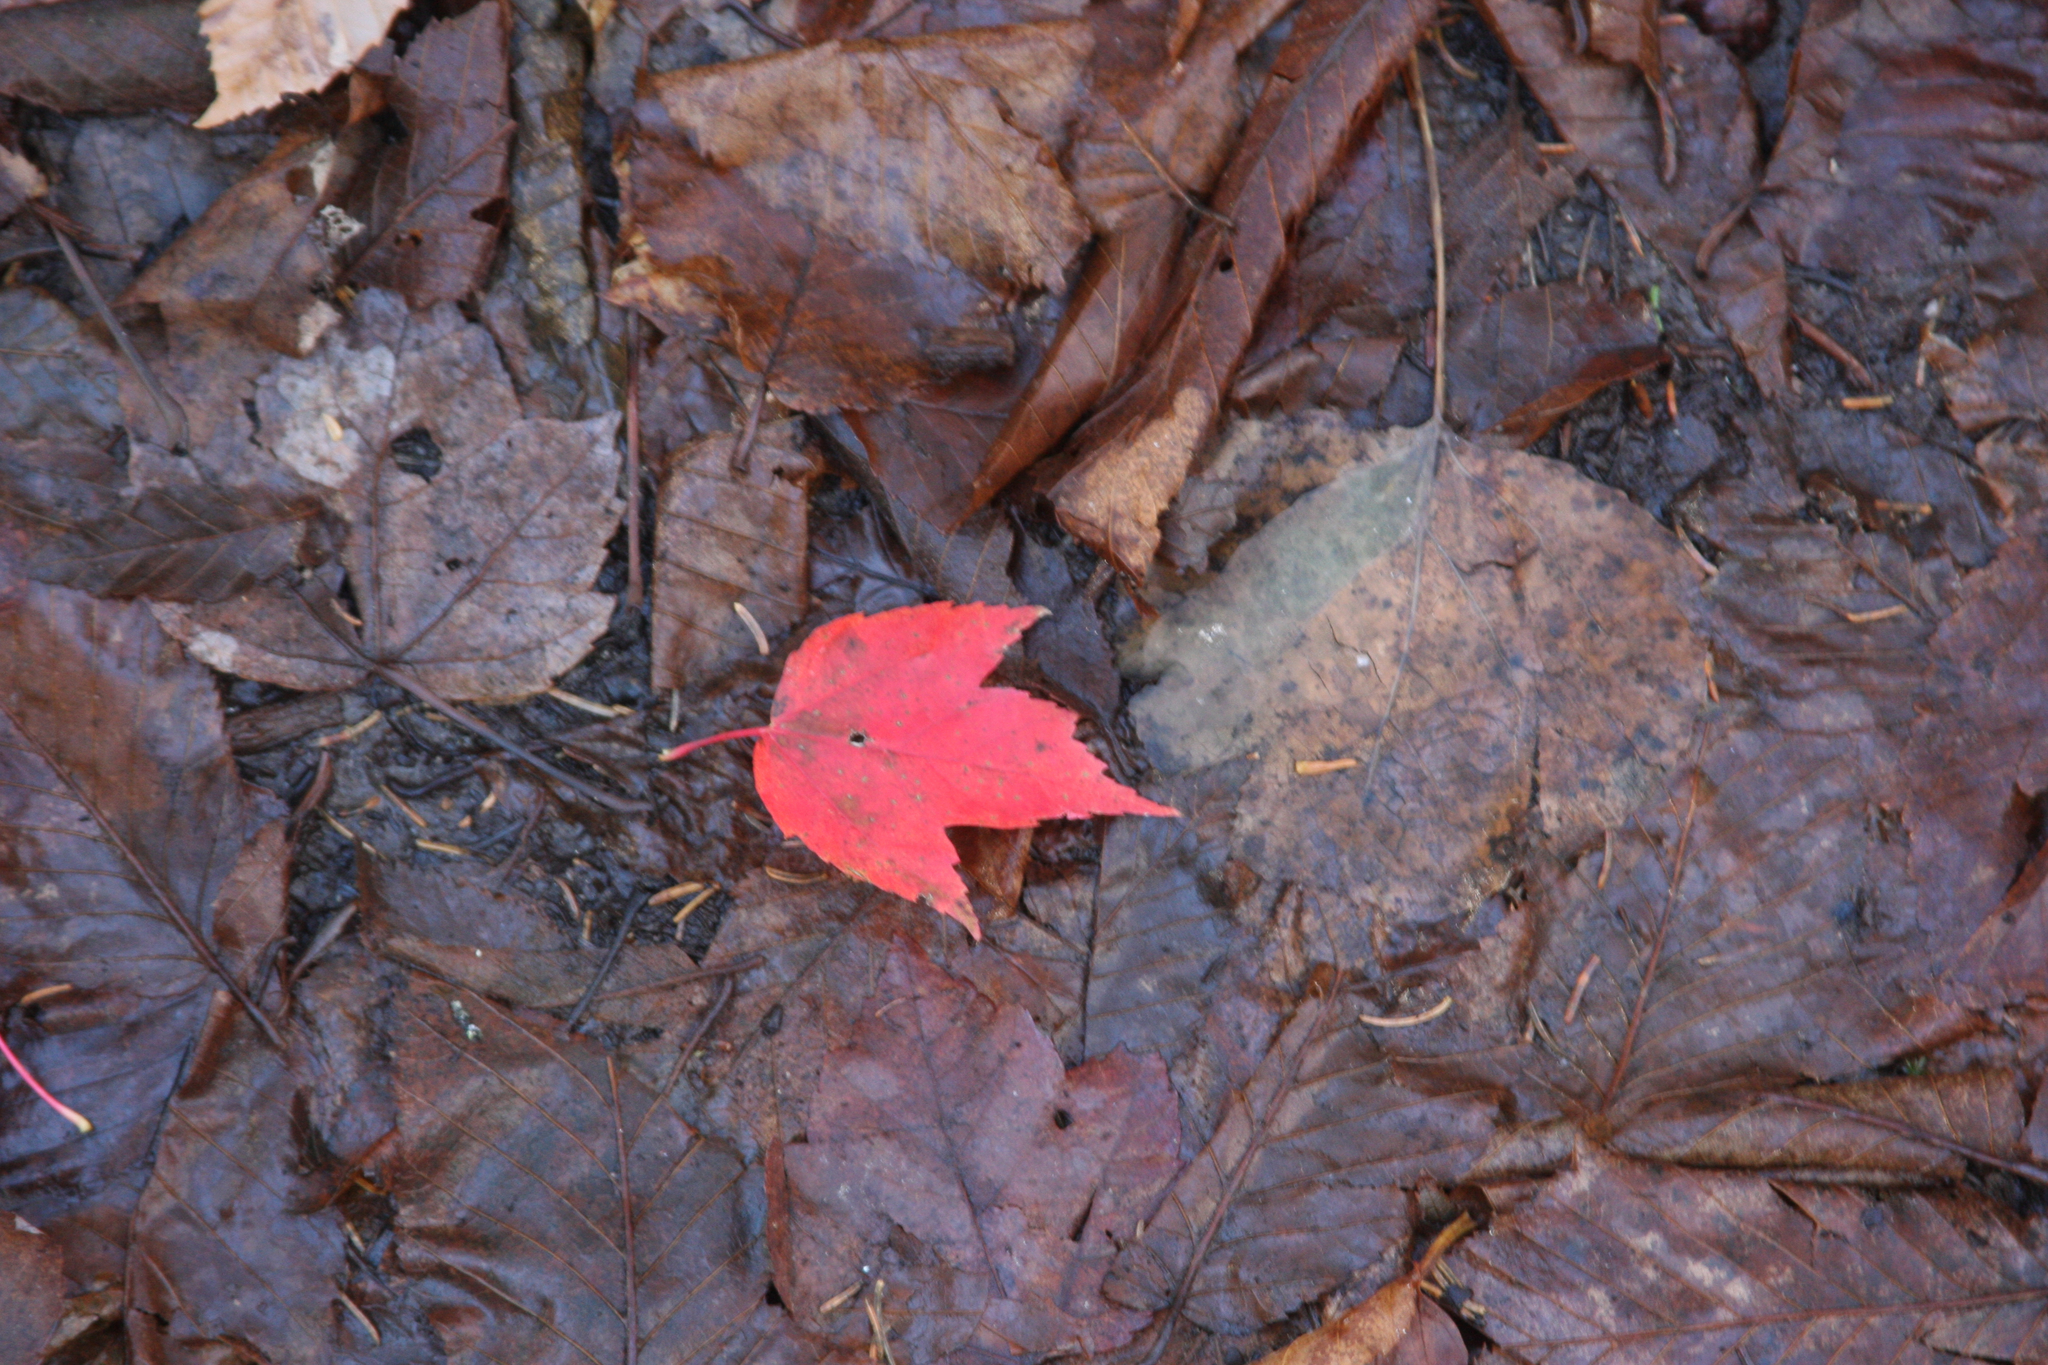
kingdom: Plantae
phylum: Tracheophyta
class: Magnoliopsida
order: Sapindales
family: Sapindaceae
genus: Acer
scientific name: Acer rubrum
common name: Red maple
